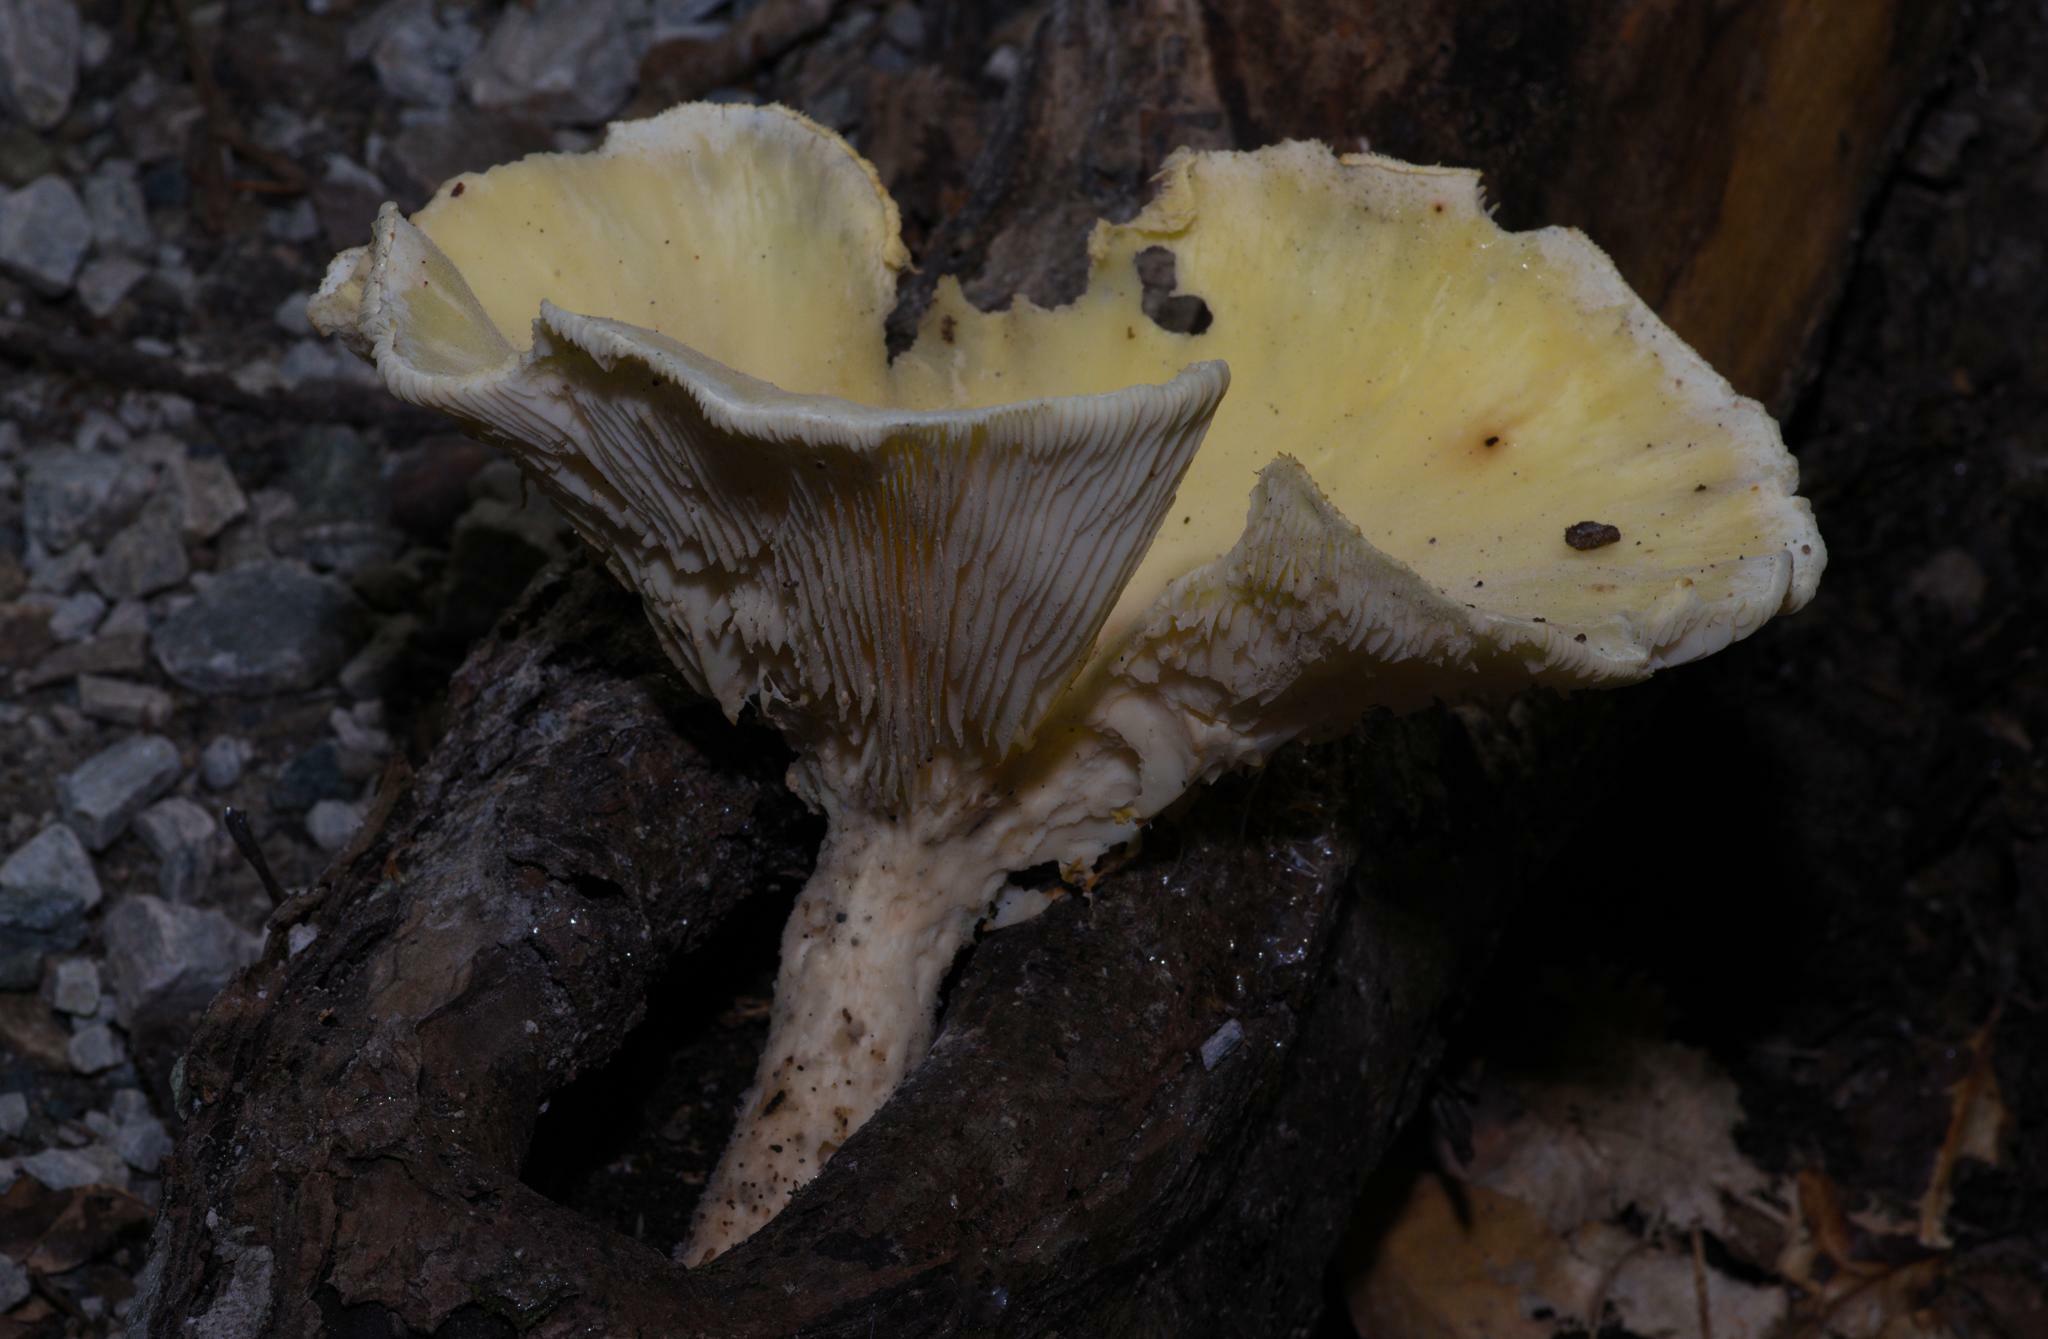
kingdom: Fungi
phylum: Basidiomycota
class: Agaricomycetes
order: Polyporales
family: Polyporaceae
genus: Lentinus
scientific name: Lentinus levis
